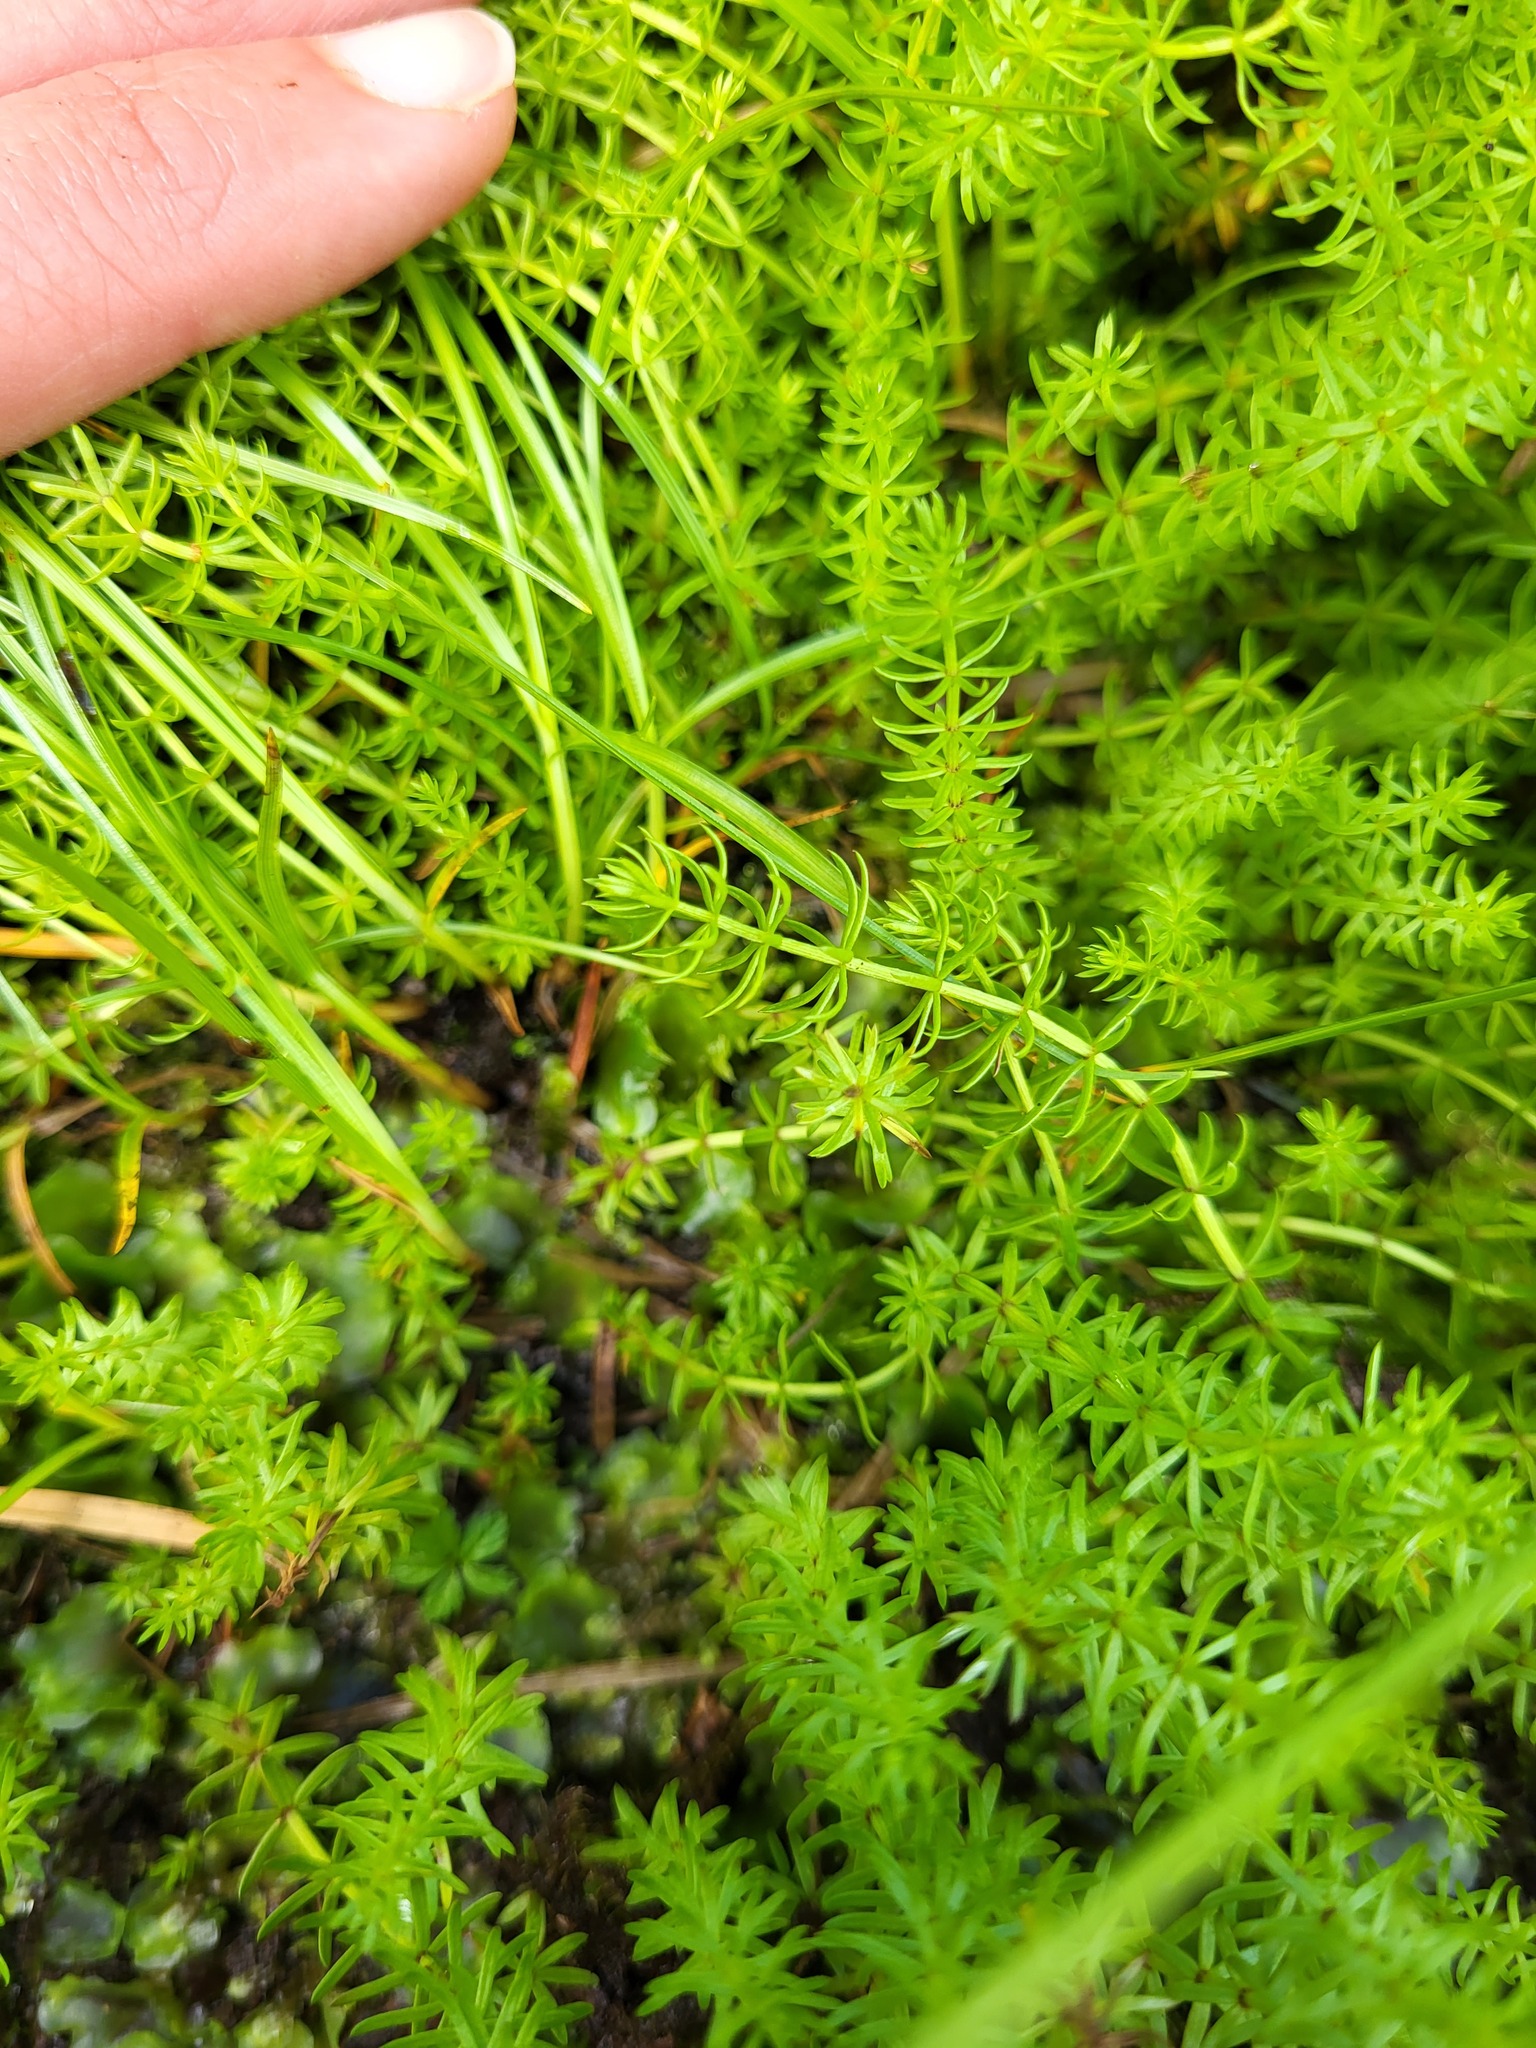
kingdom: Plantae
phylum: Tracheophyta
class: Magnoliopsida
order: Lamiales
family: Plantaginaceae
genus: Hippuris
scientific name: Hippuris montana
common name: Mountain mare's-tail
